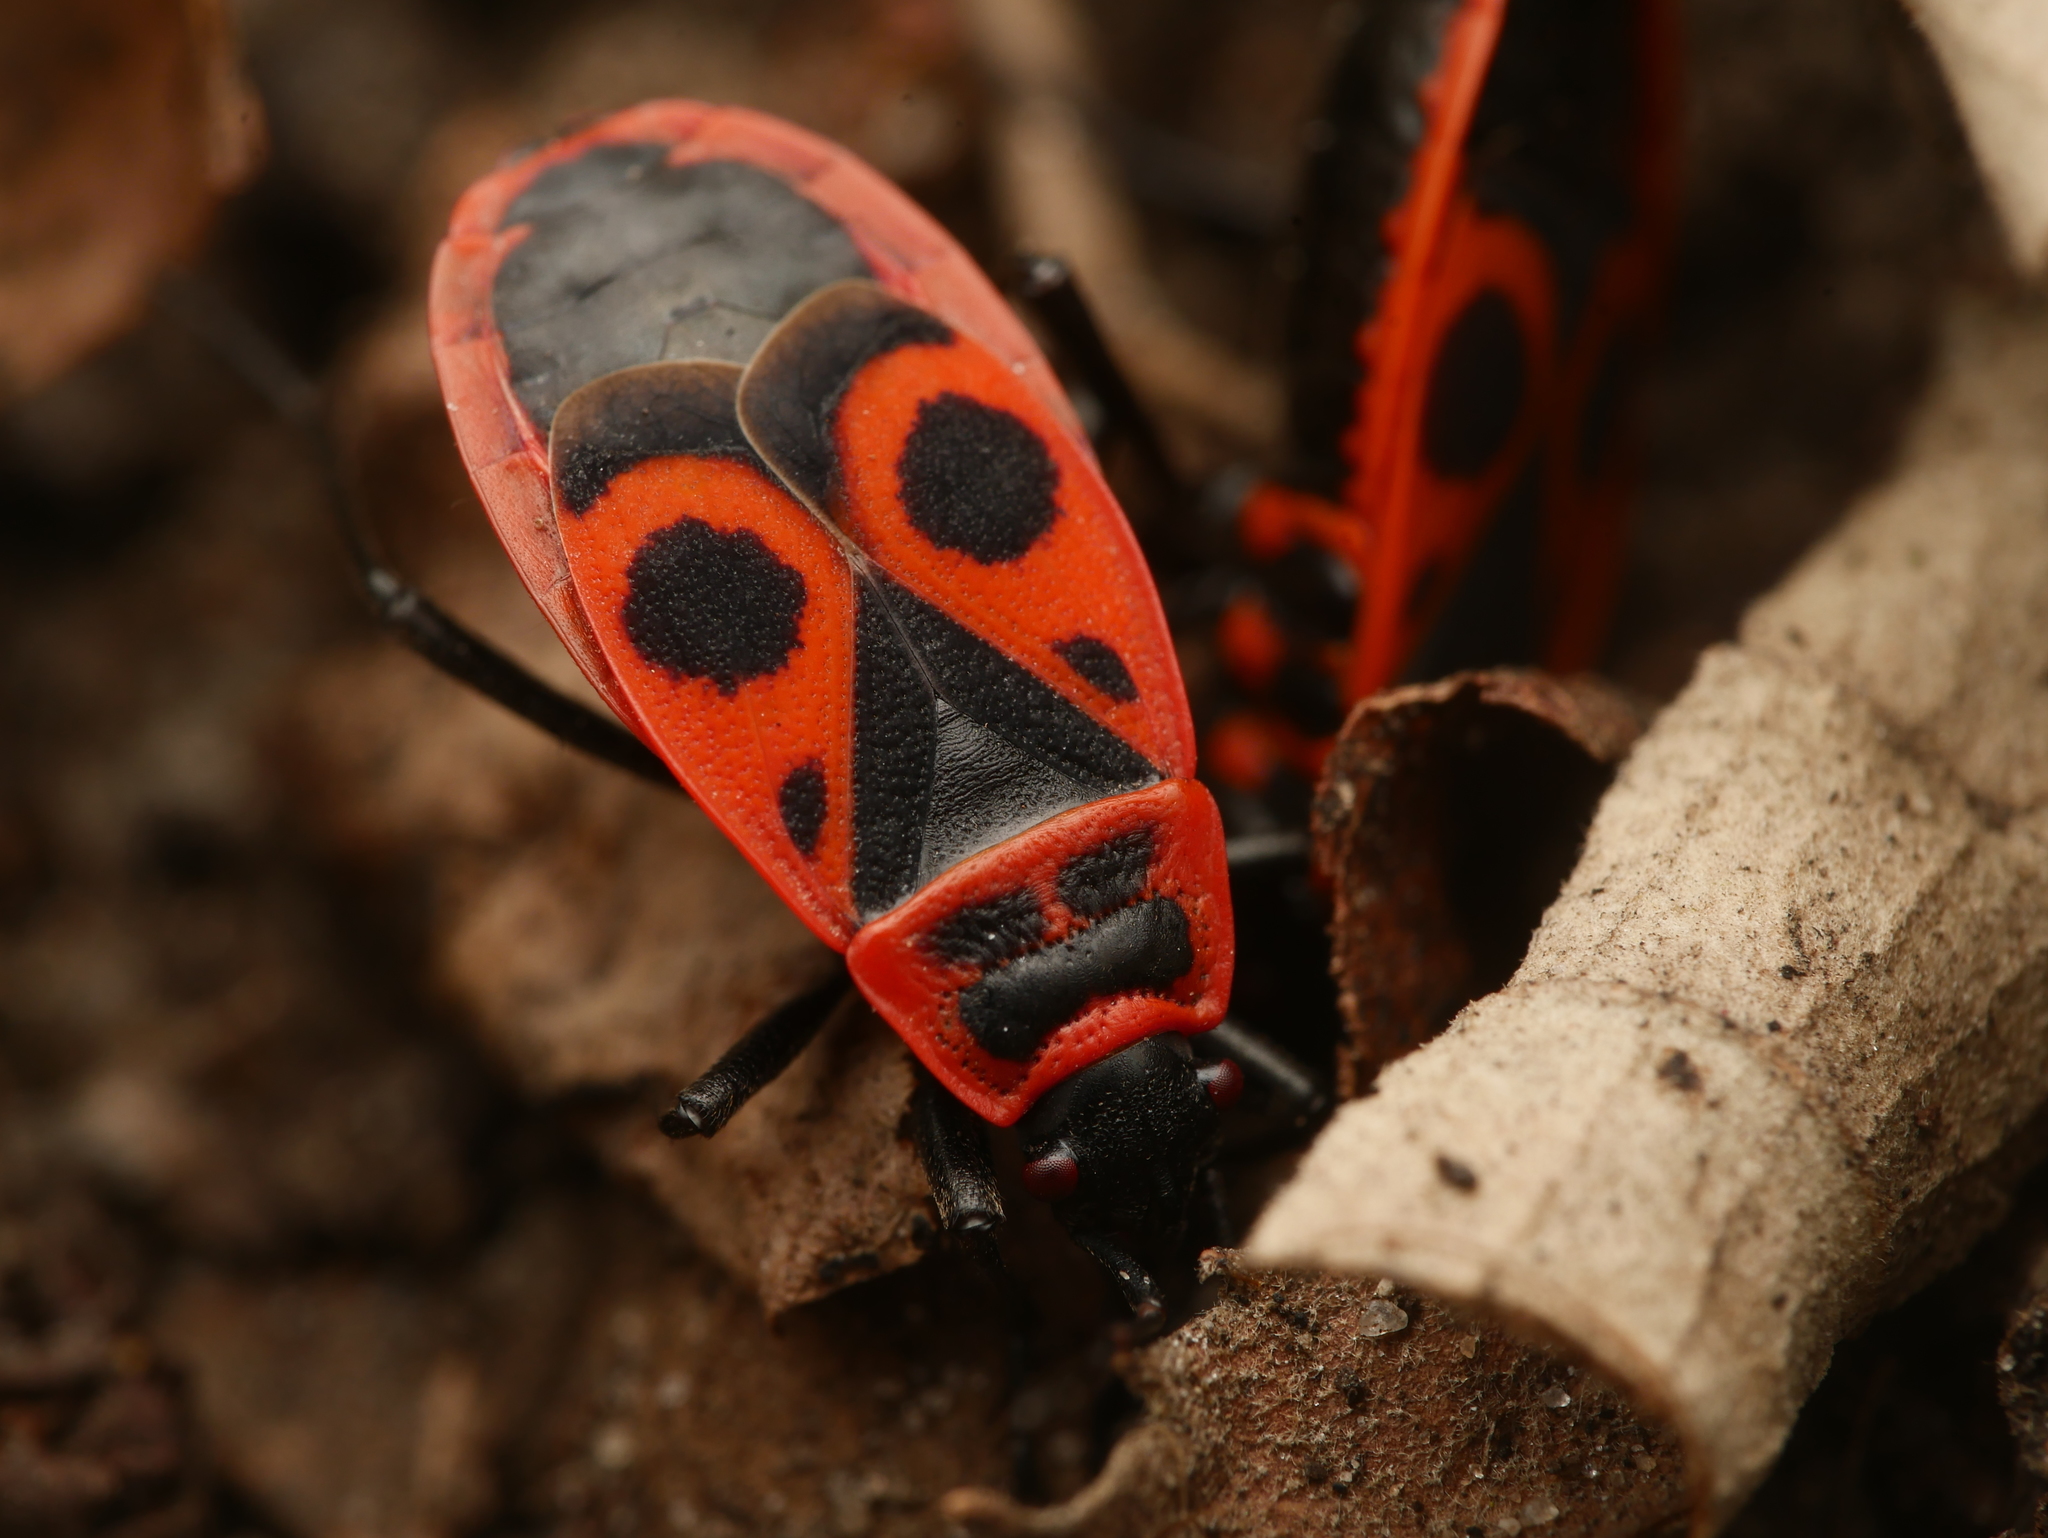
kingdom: Animalia
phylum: Arthropoda
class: Insecta
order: Hemiptera
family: Pyrrhocoridae
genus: Pyrrhocoris
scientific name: Pyrrhocoris apterus
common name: Firebug
